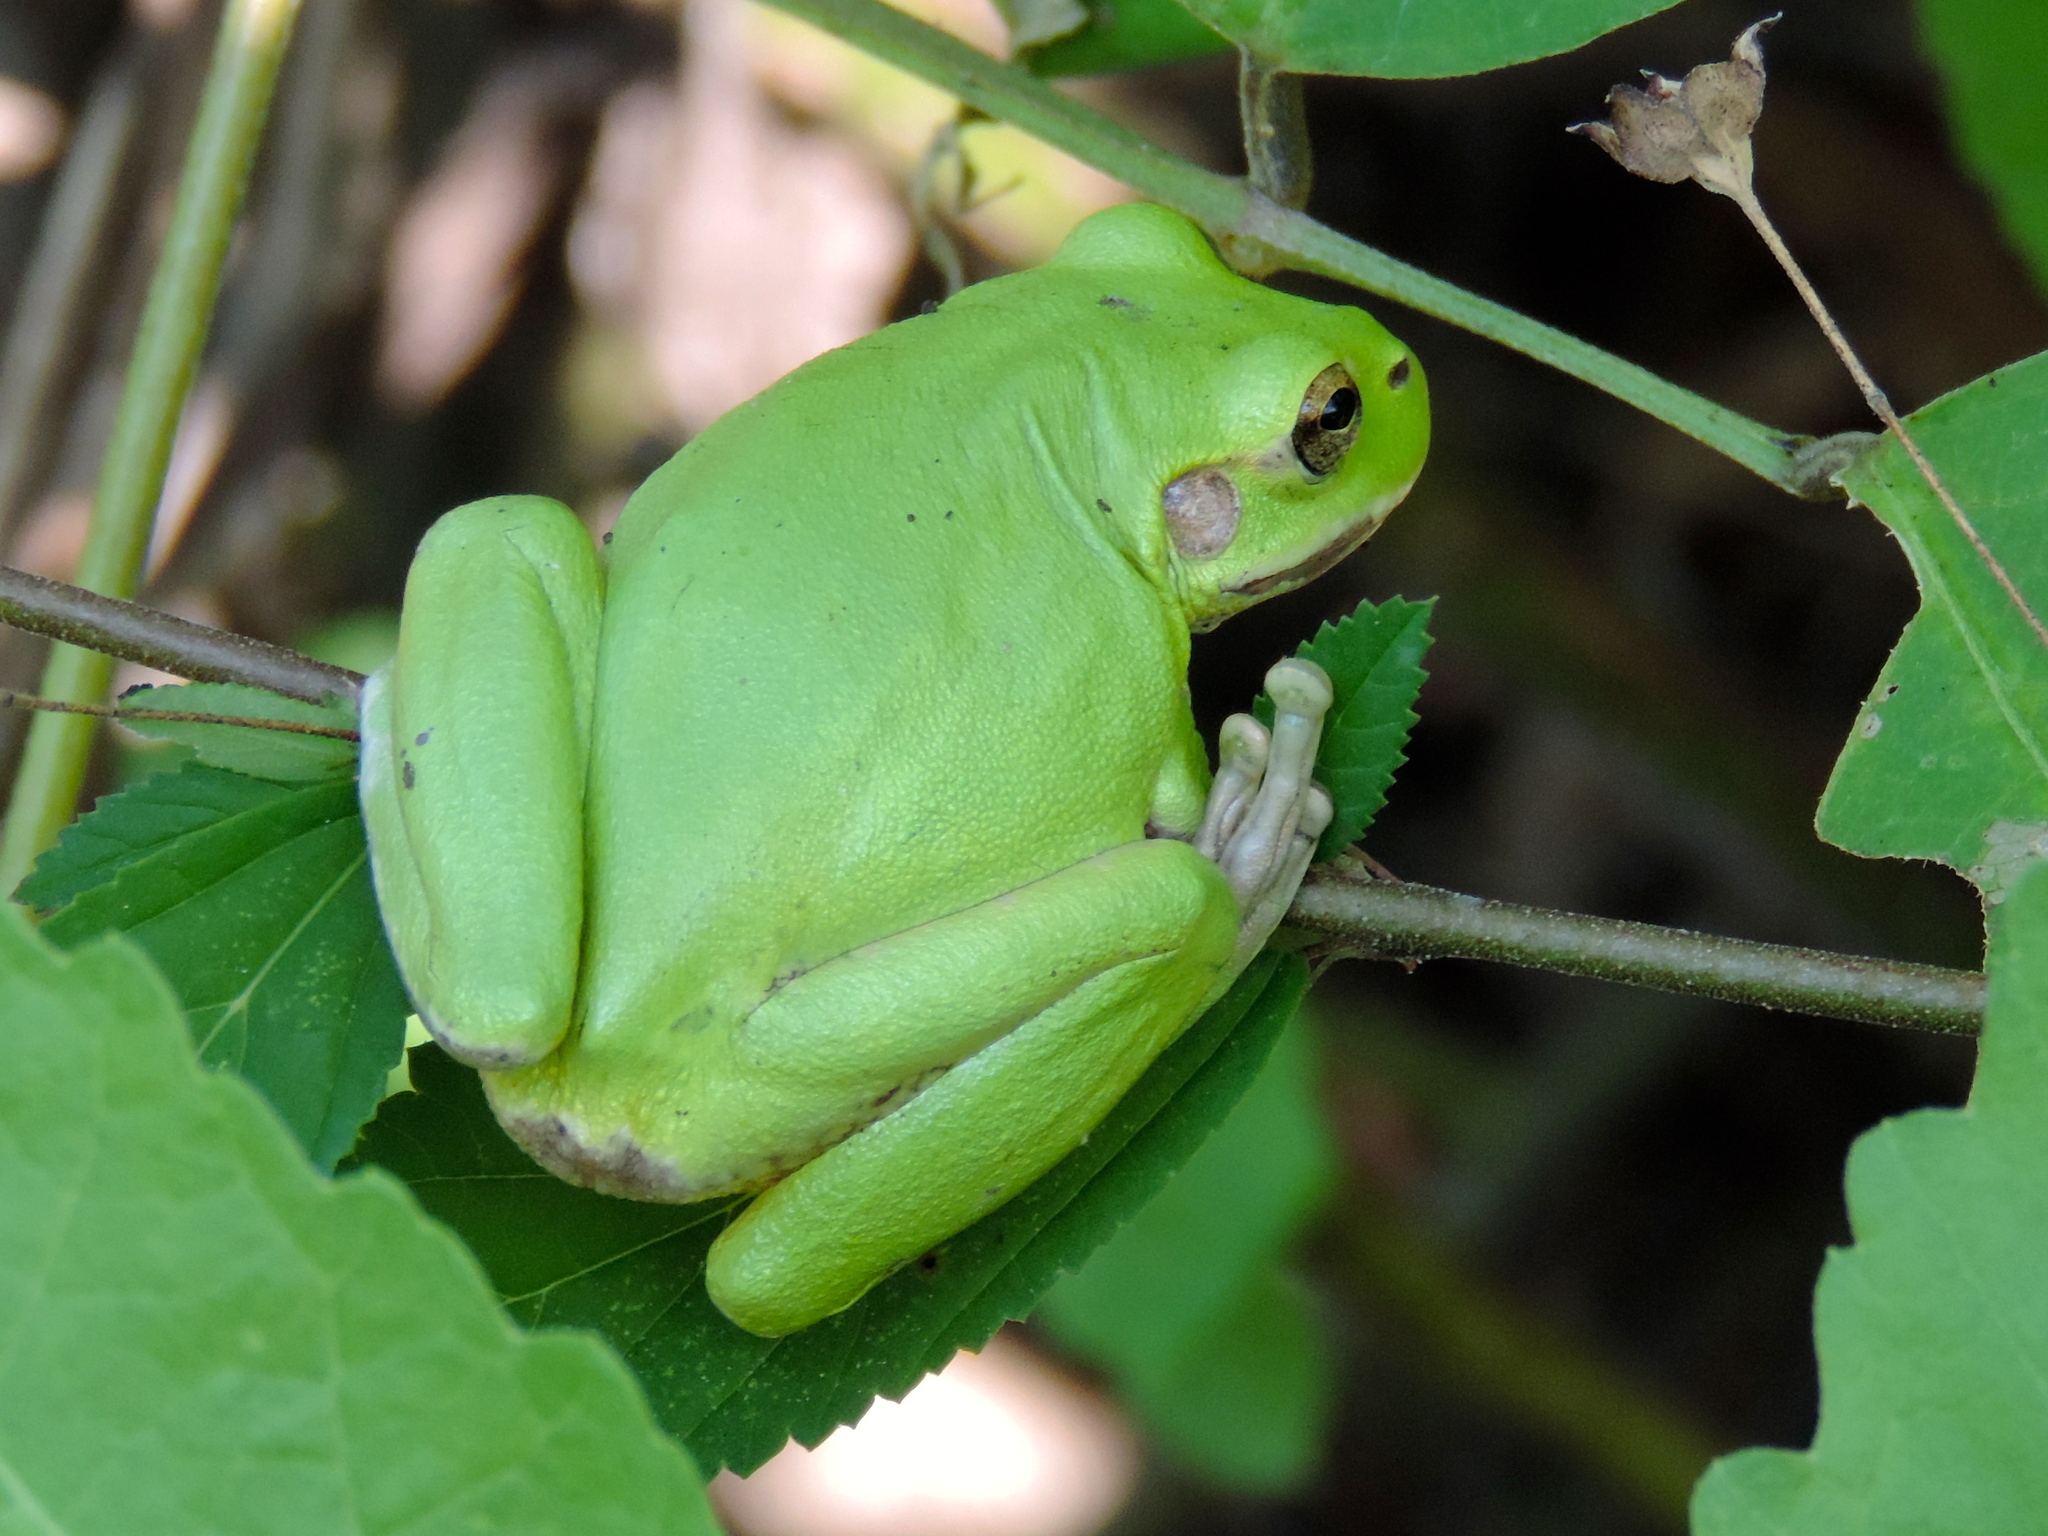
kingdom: Animalia
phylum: Chordata
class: Amphibia
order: Anura
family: Hylidae
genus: Smilisca
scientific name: Smilisca baudinii
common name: Mexican smilisca
